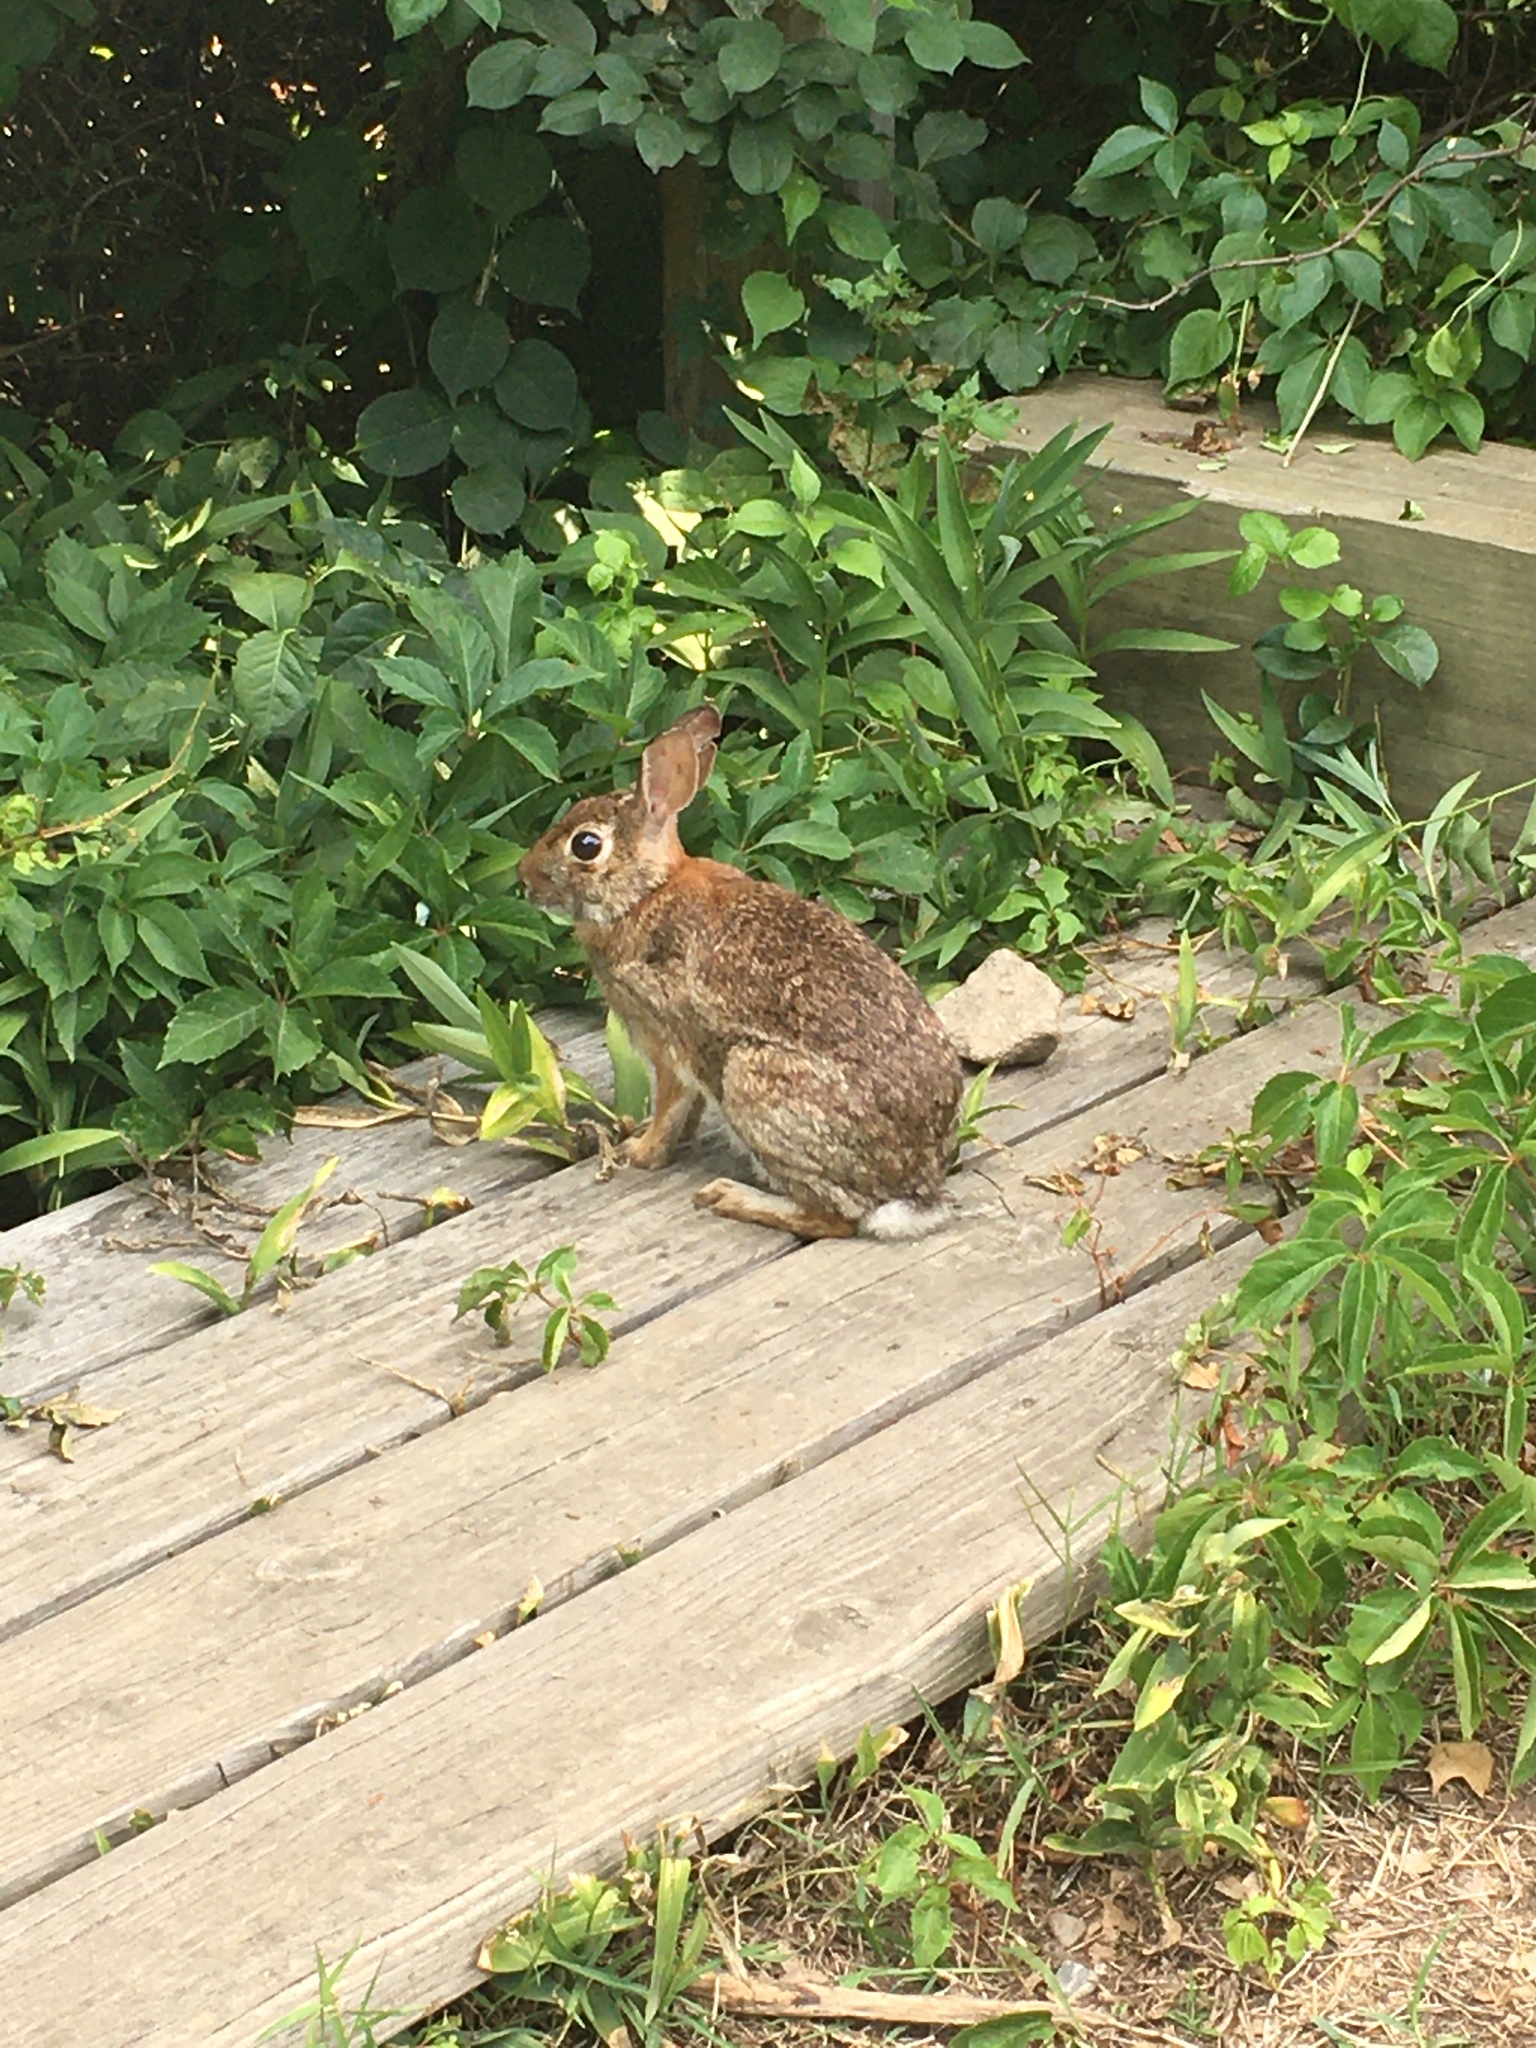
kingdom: Animalia
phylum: Chordata
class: Mammalia
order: Lagomorpha
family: Leporidae
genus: Sylvilagus
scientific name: Sylvilagus floridanus
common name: Eastern cottontail
